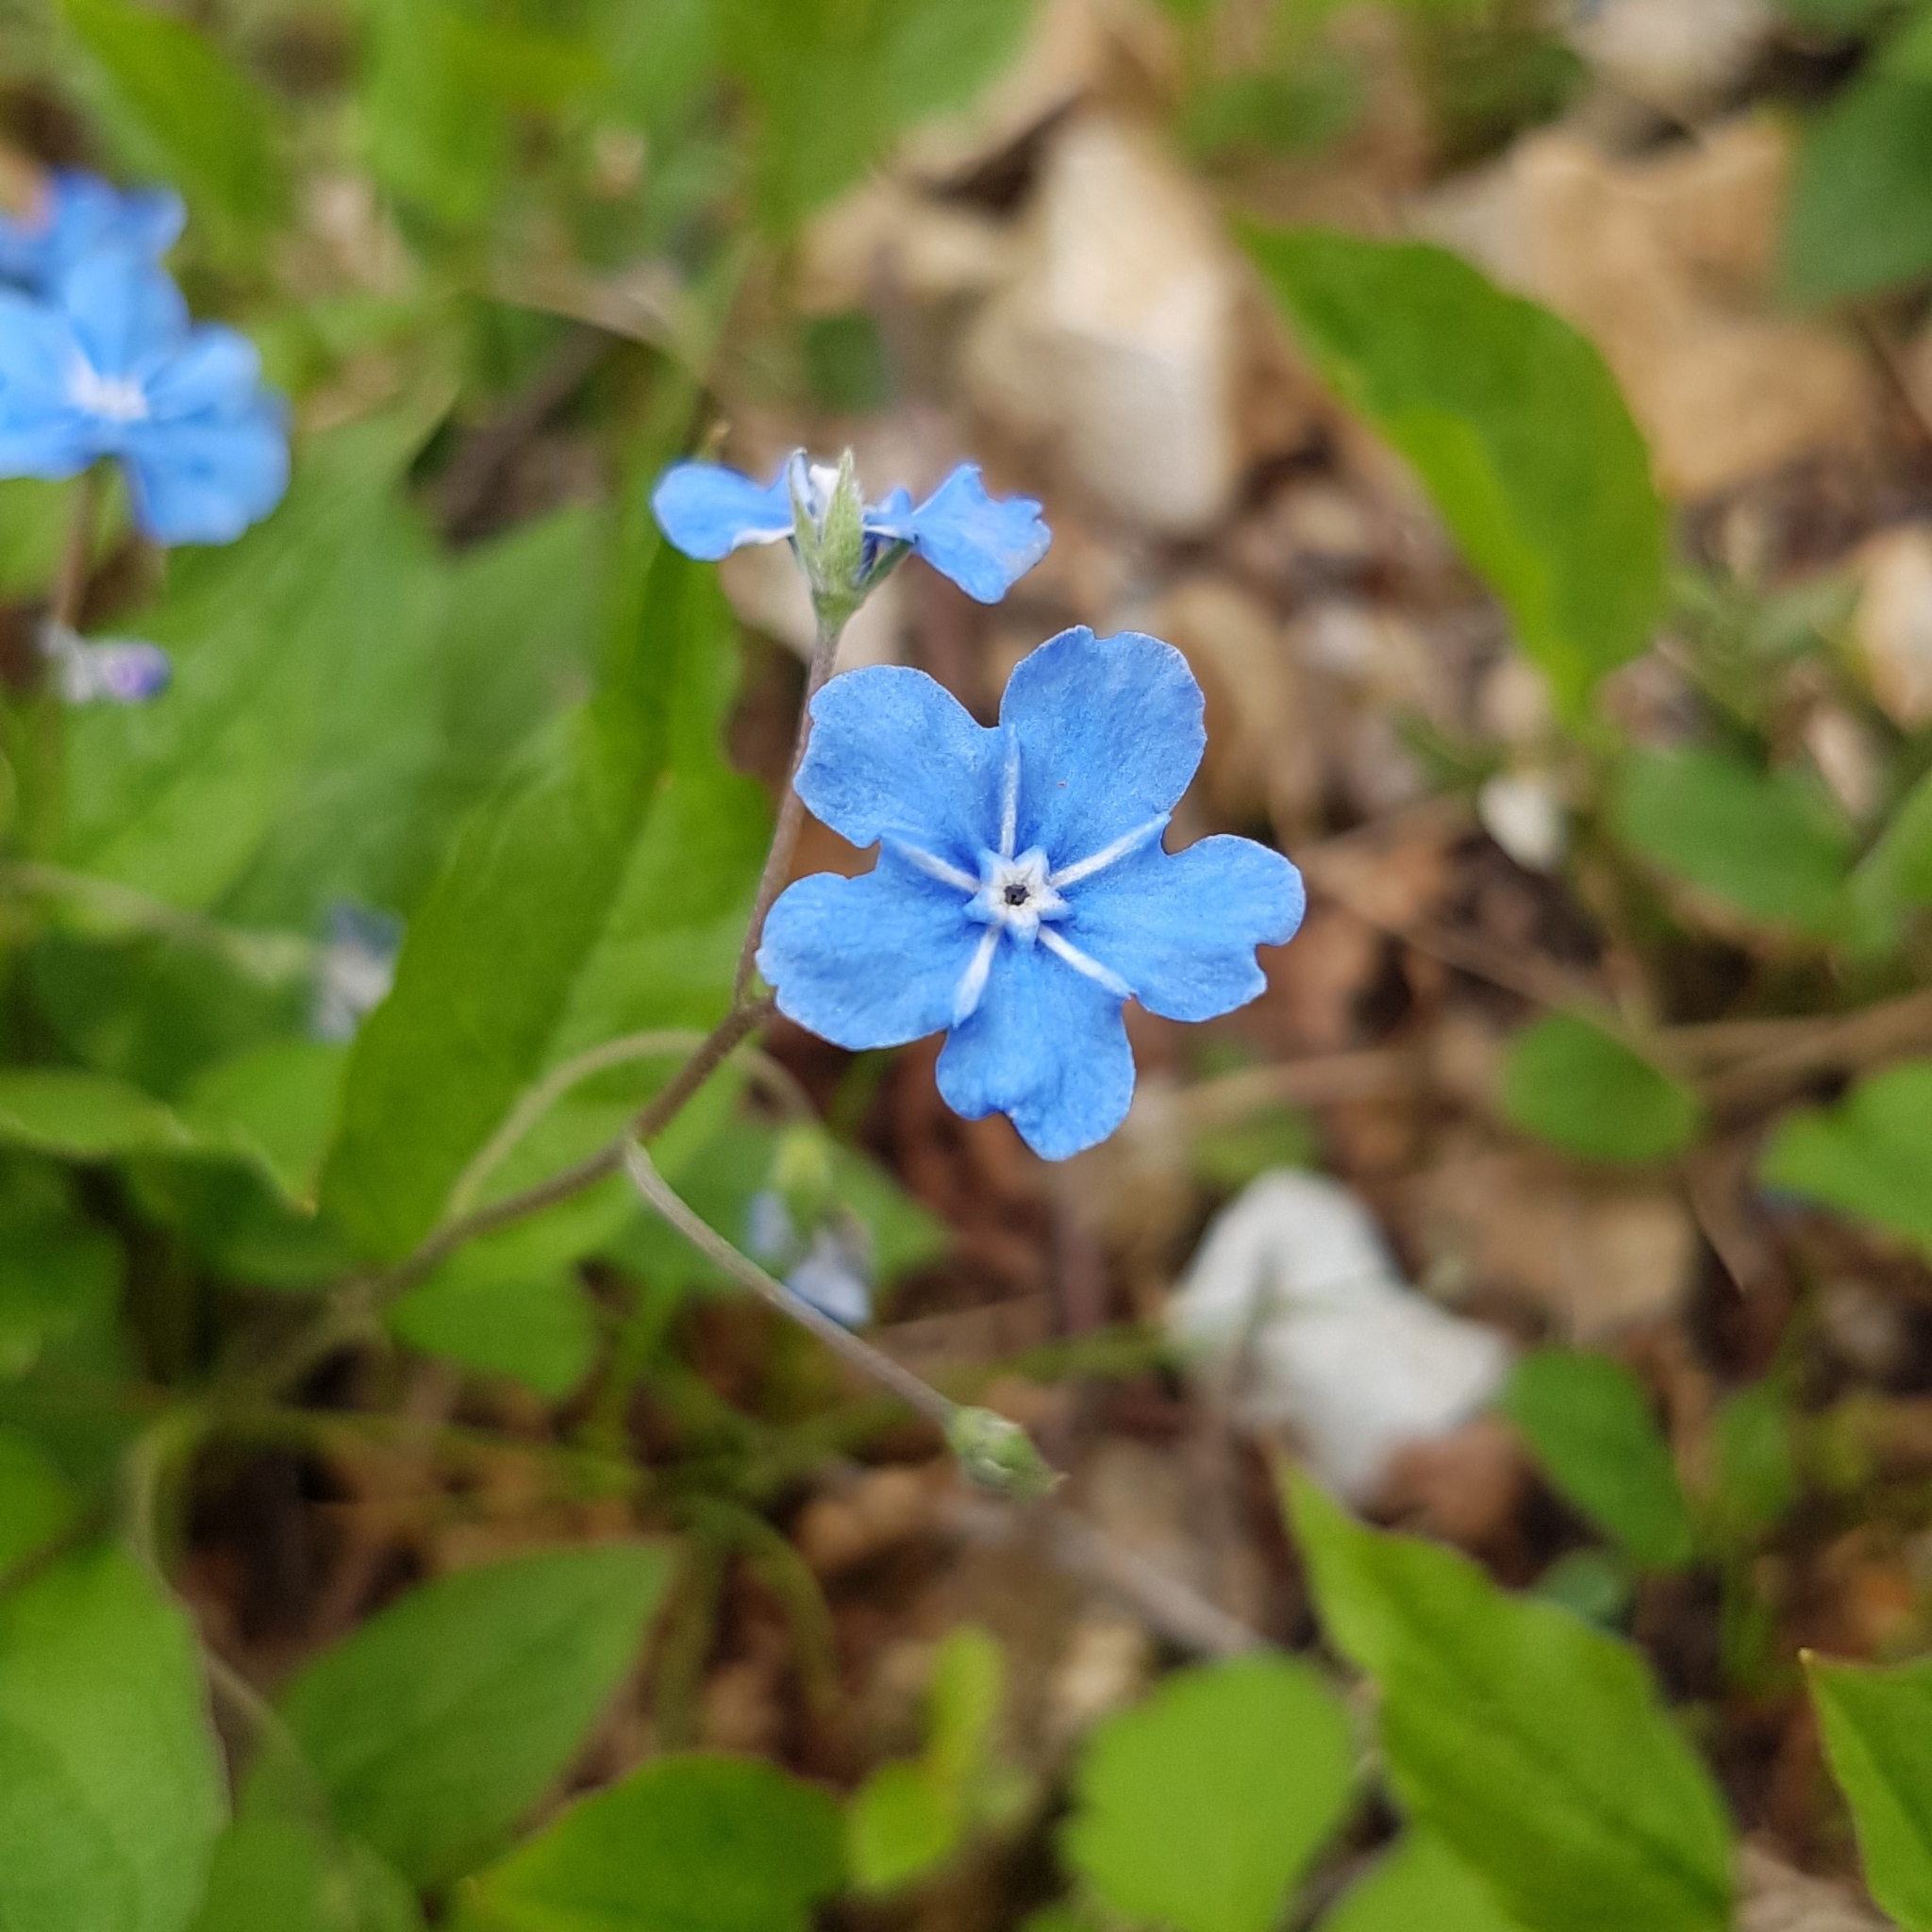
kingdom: Plantae
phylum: Tracheophyta
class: Magnoliopsida
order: Boraginales
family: Boraginaceae
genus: Omphalodes
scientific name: Omphalodes verna
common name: Blue-eyed-mary
